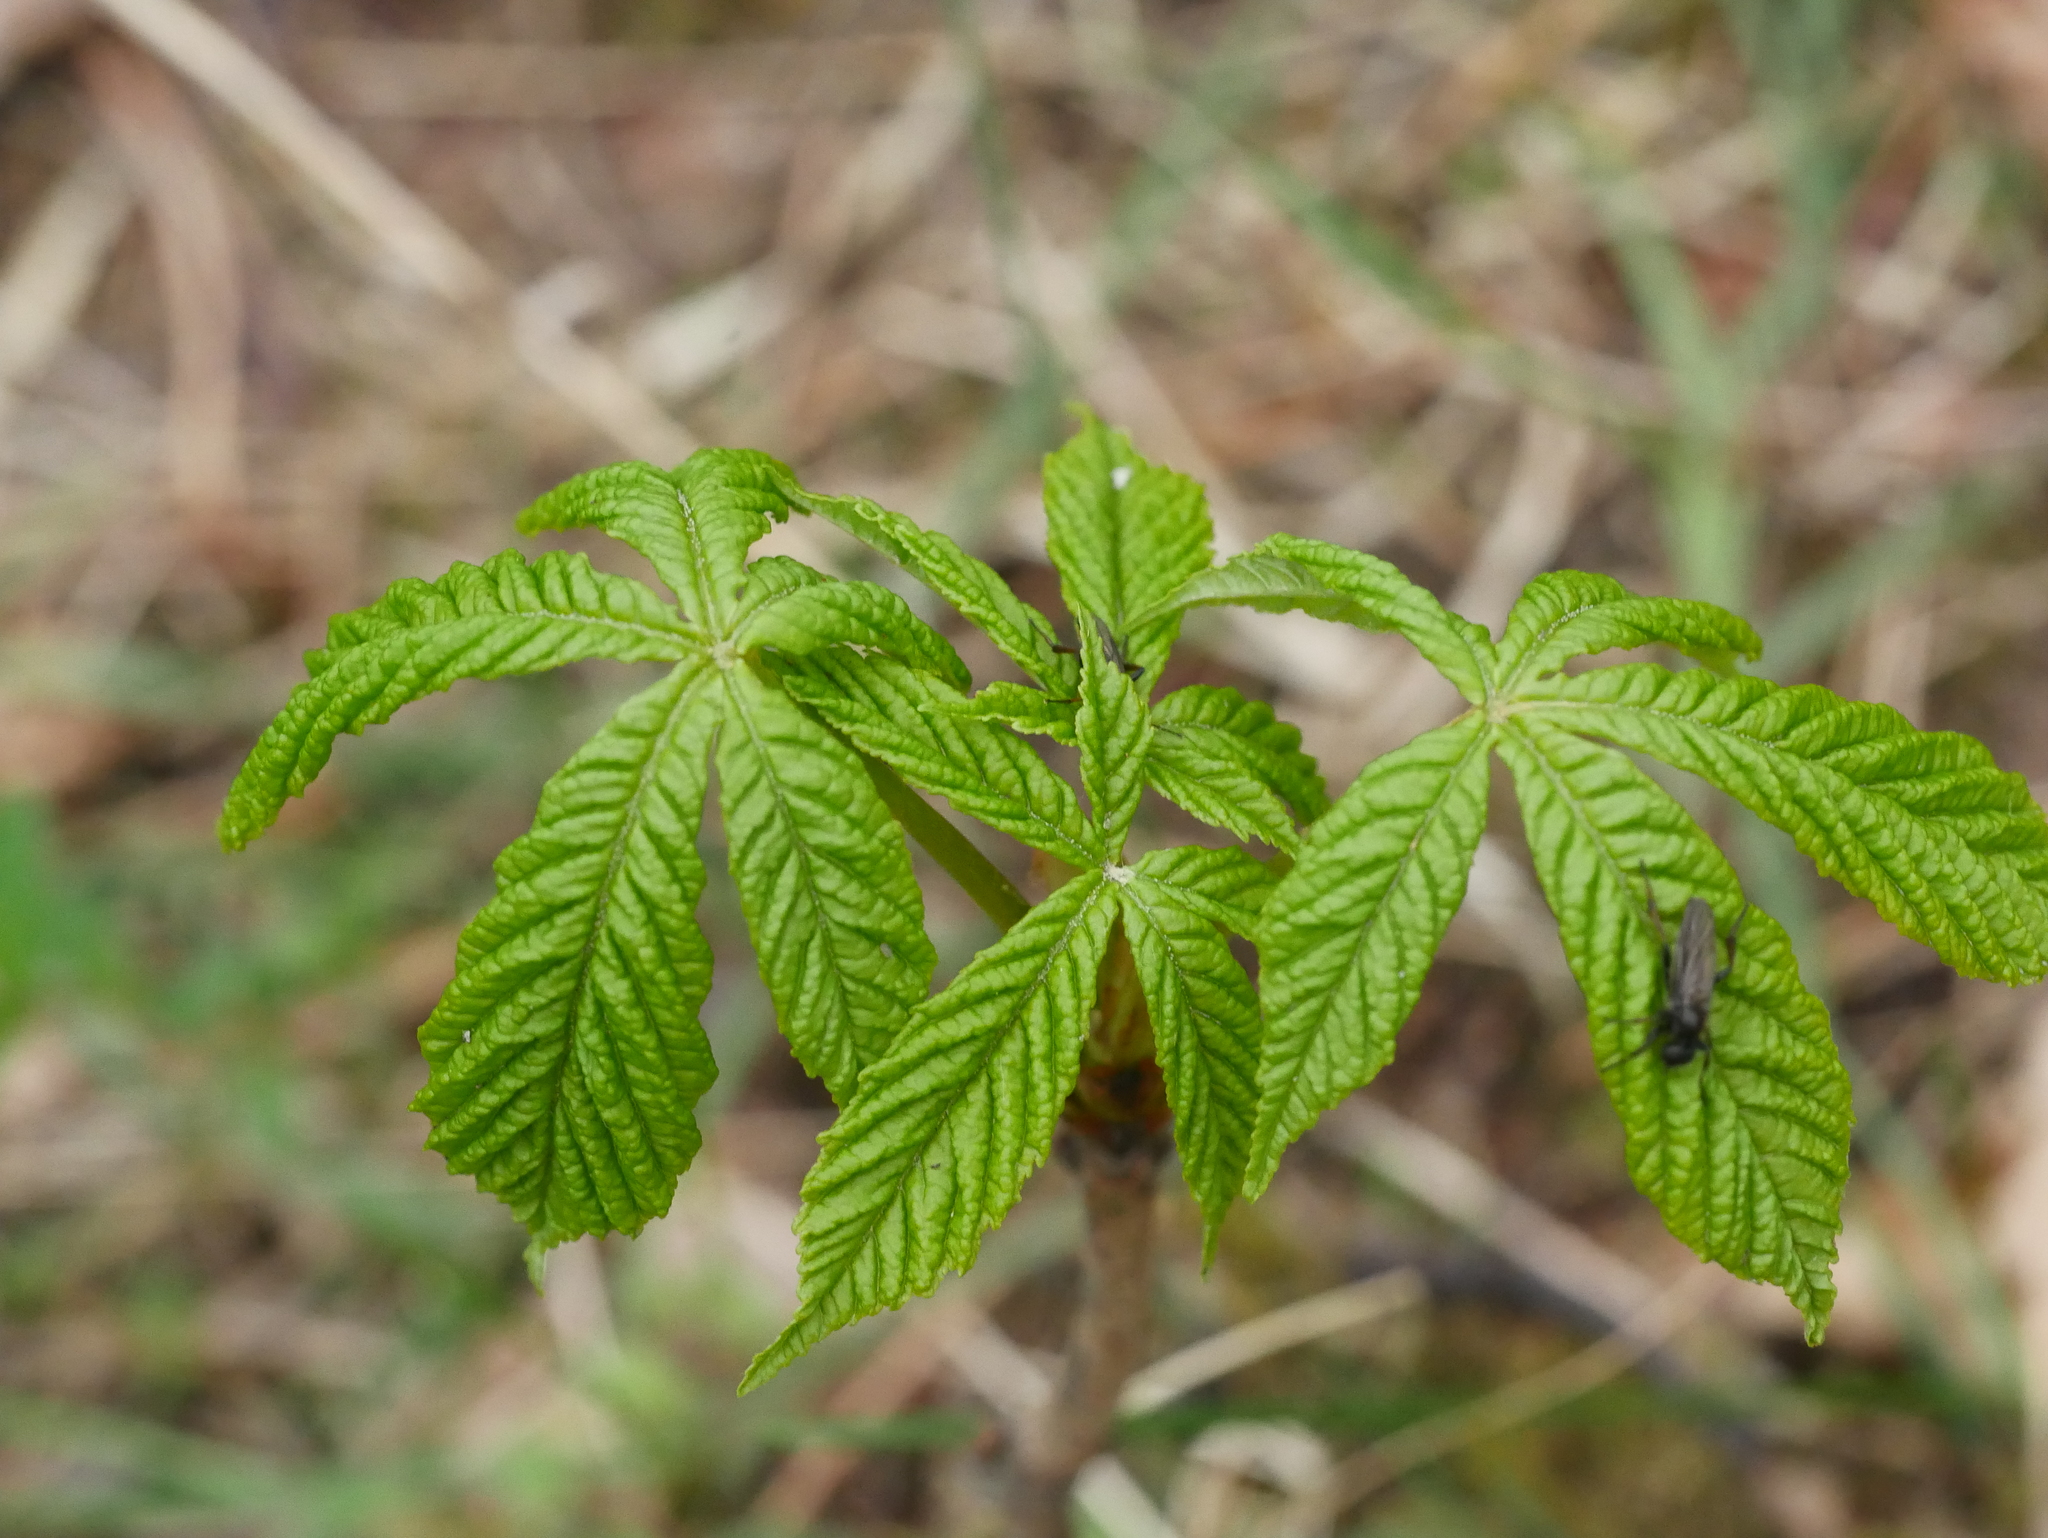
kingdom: Plantae
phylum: Tracheophyta
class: Magnoliopsida
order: Sapindales
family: Sapindaceae
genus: Aesculus
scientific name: Aesculus hippocastanum
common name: Horse-chestnut
